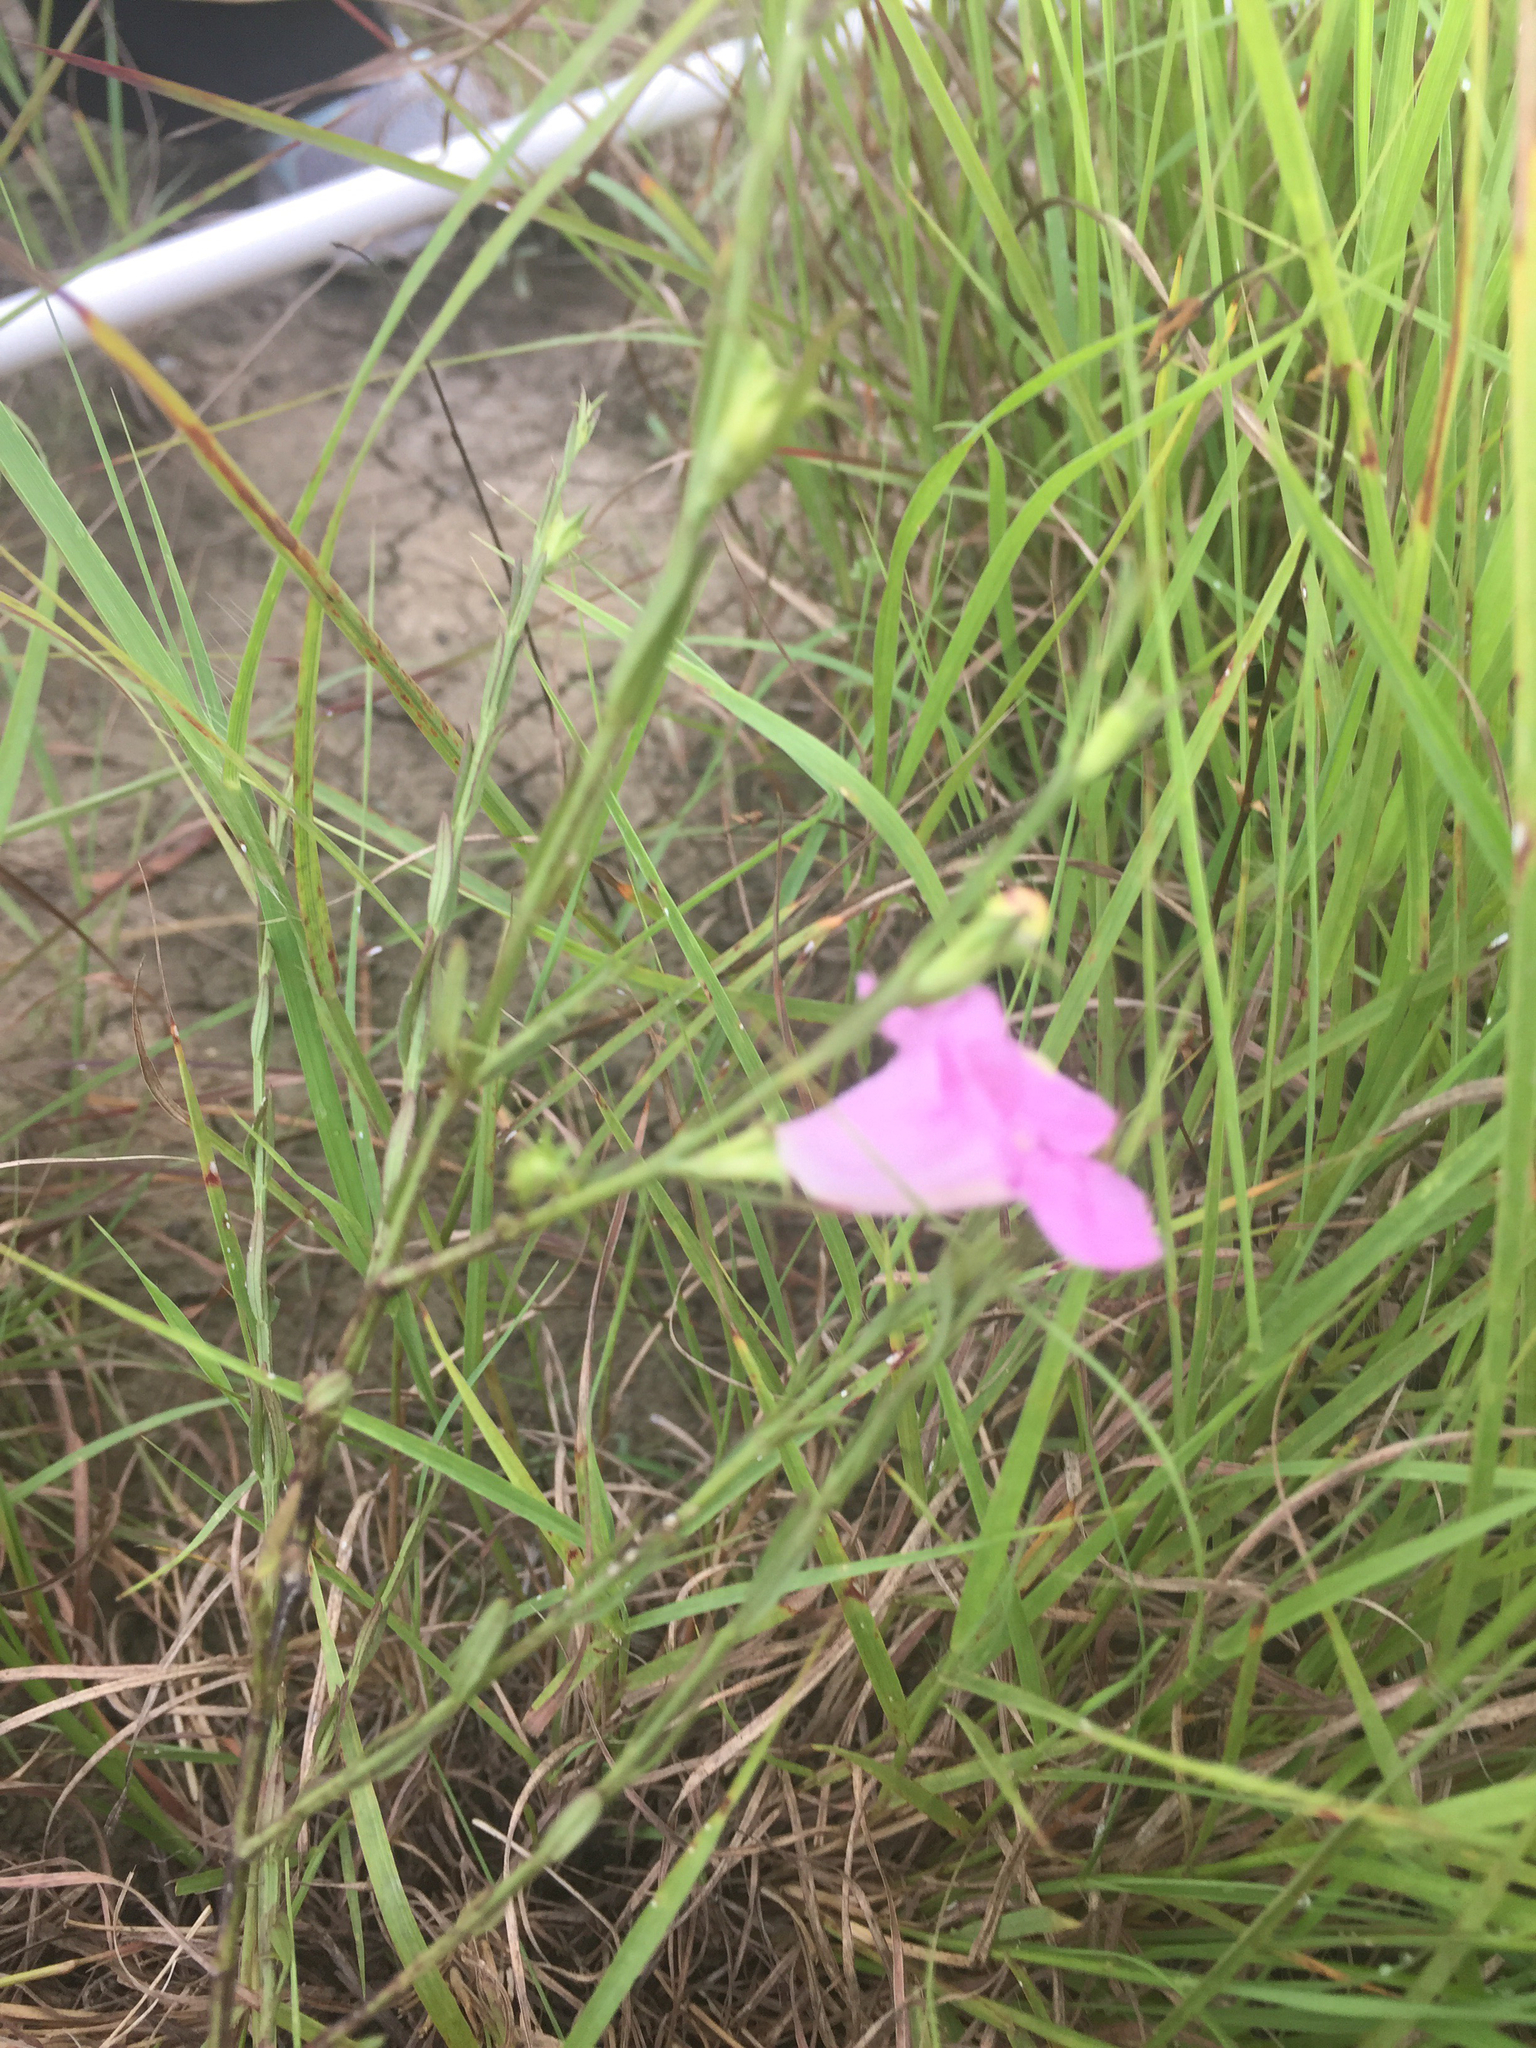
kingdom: Plantae
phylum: Tracheophyta
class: Magnoliopsida
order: Lamiales
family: Orobanchaceae
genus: Agalinis
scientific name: Agalinis heterophylla
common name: Prairie agalinis
